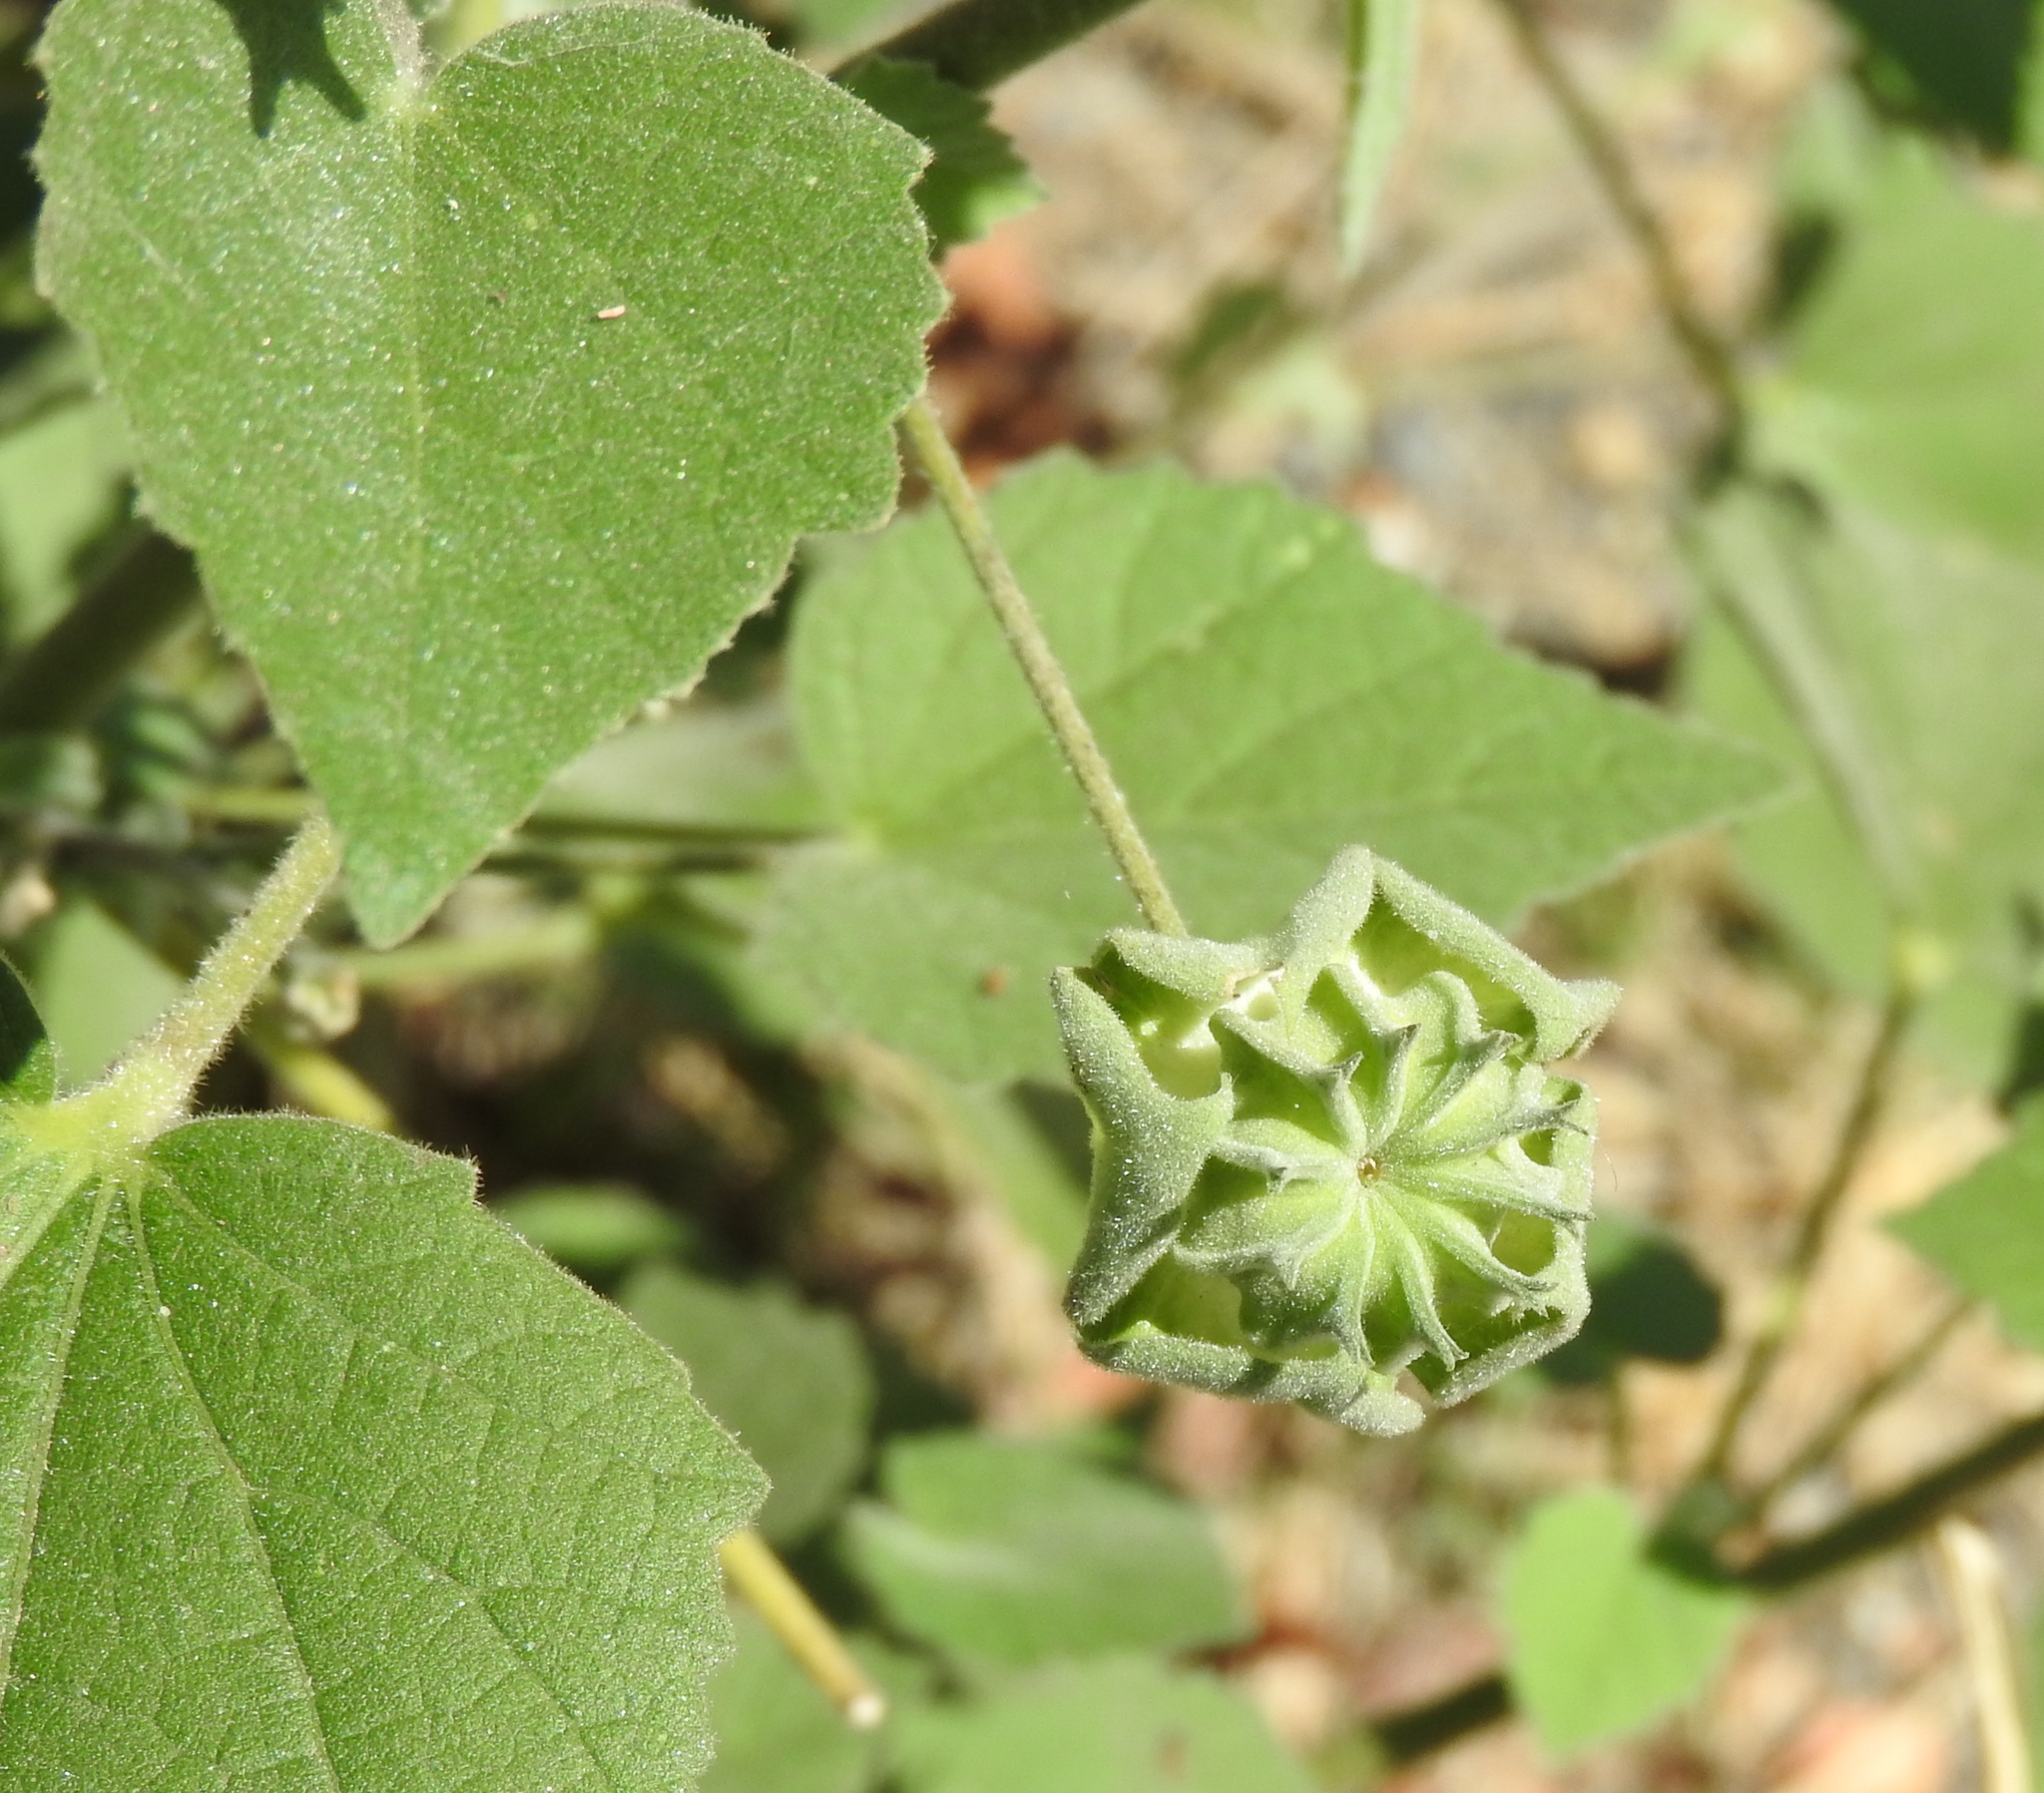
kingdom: Plantae
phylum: Tracheophyta
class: Magnoliopsida
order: Malvales
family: Malvaceae
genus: Abutilon
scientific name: Abutilon abutiloides
